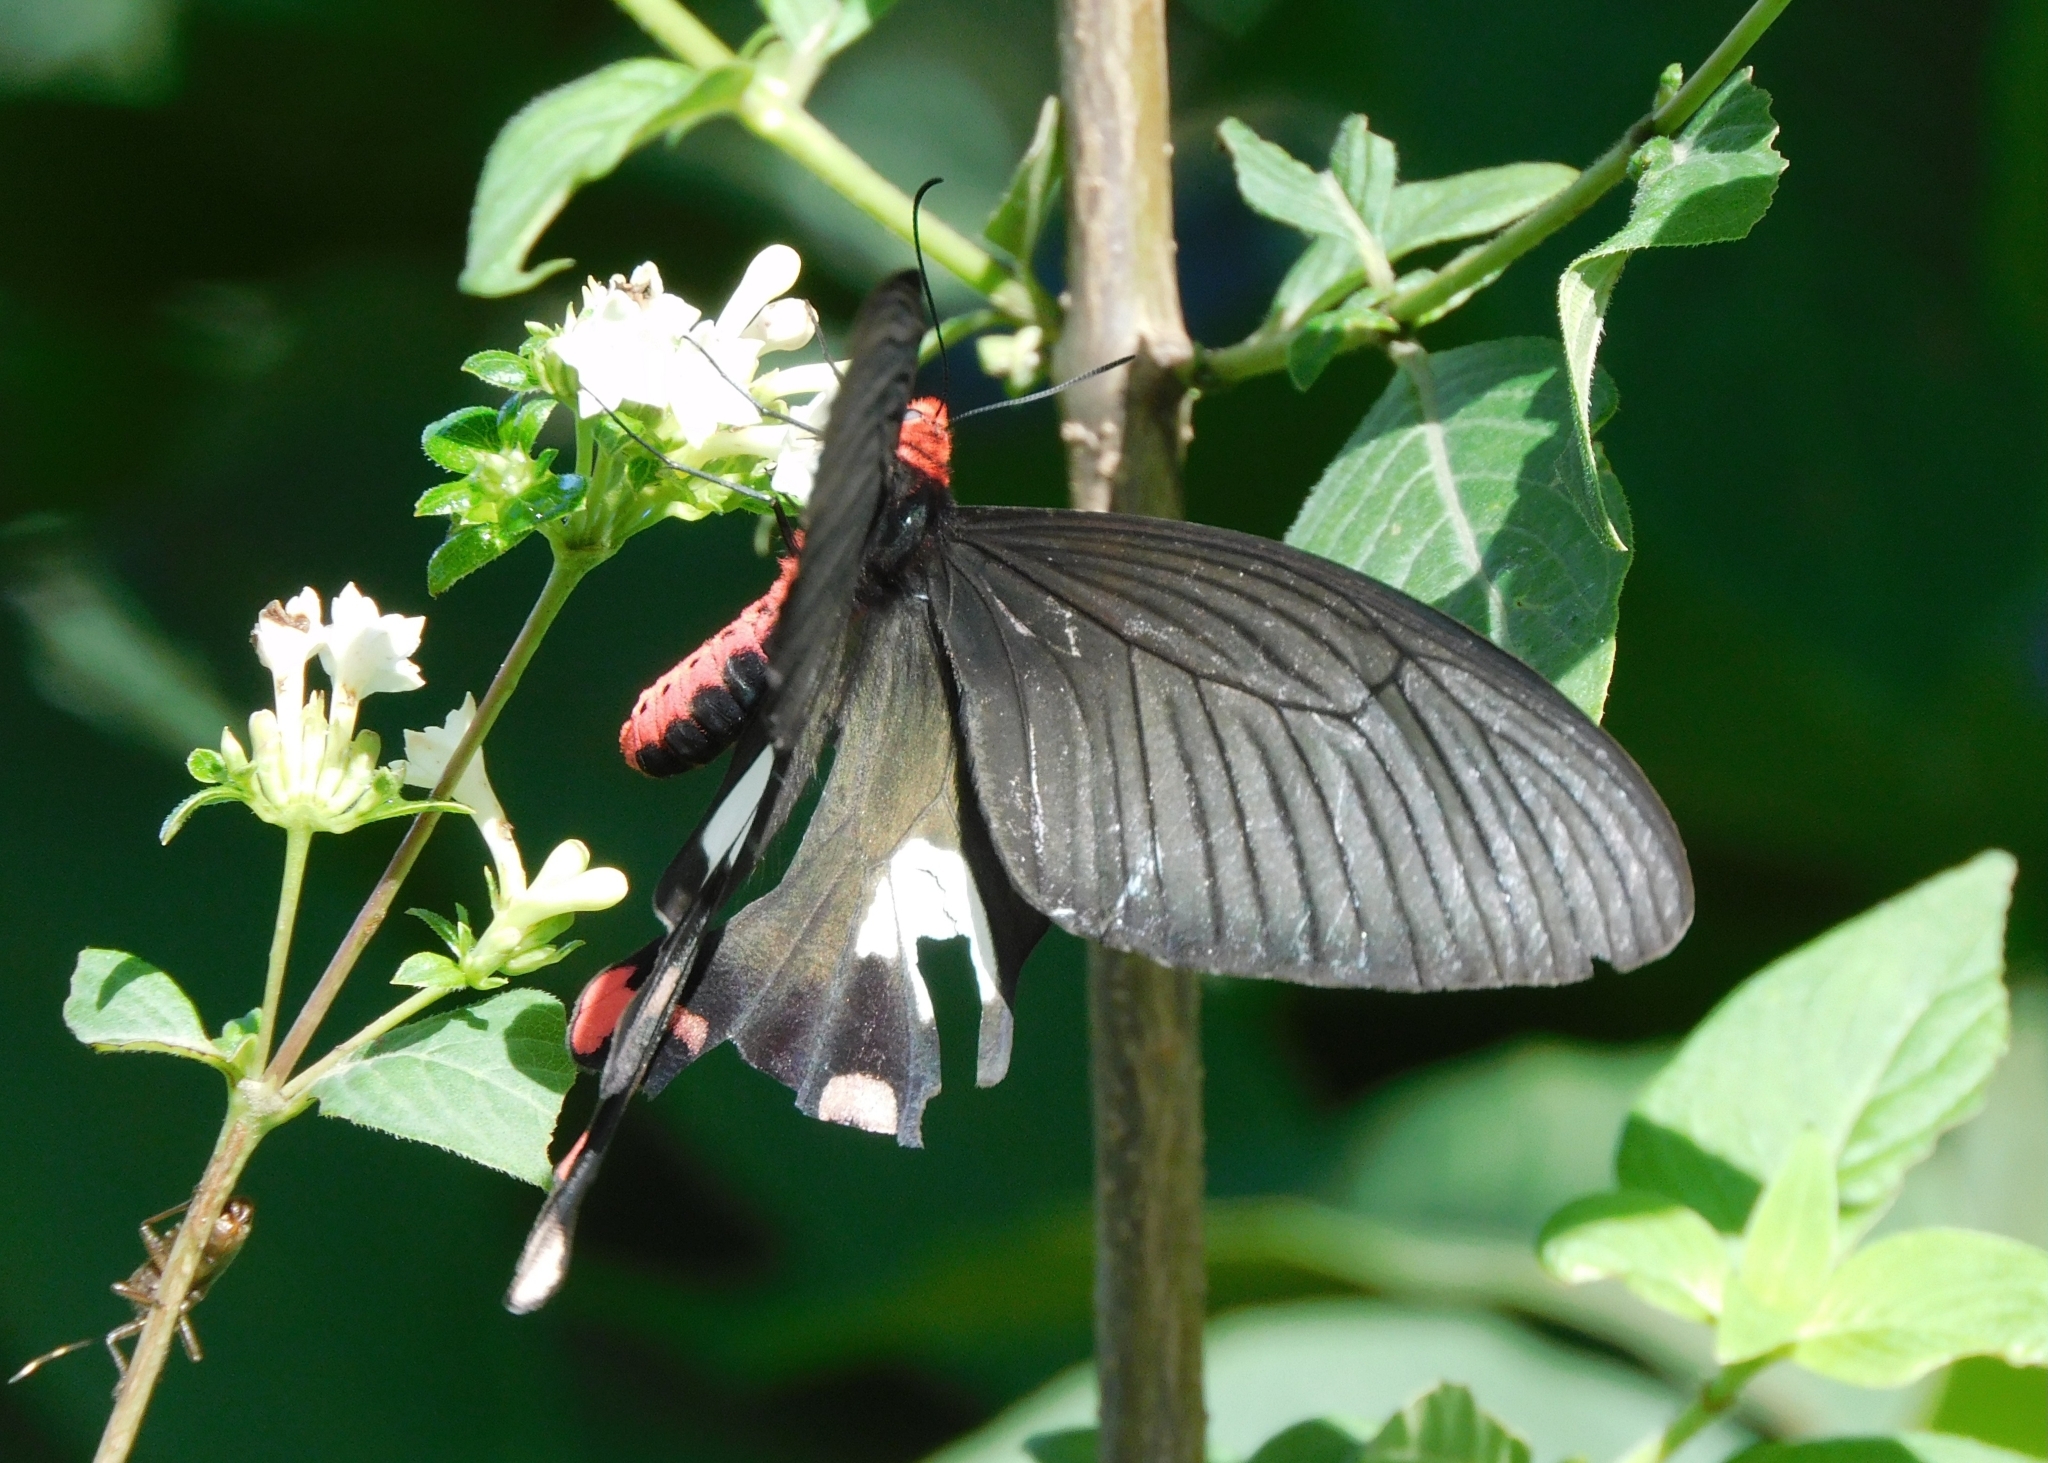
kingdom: Animalia
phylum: Arthropoda
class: Insecta
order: Lepidoptera
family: Papilionidae
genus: Byasa
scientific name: Byasa polyeuctes
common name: Common windmill
